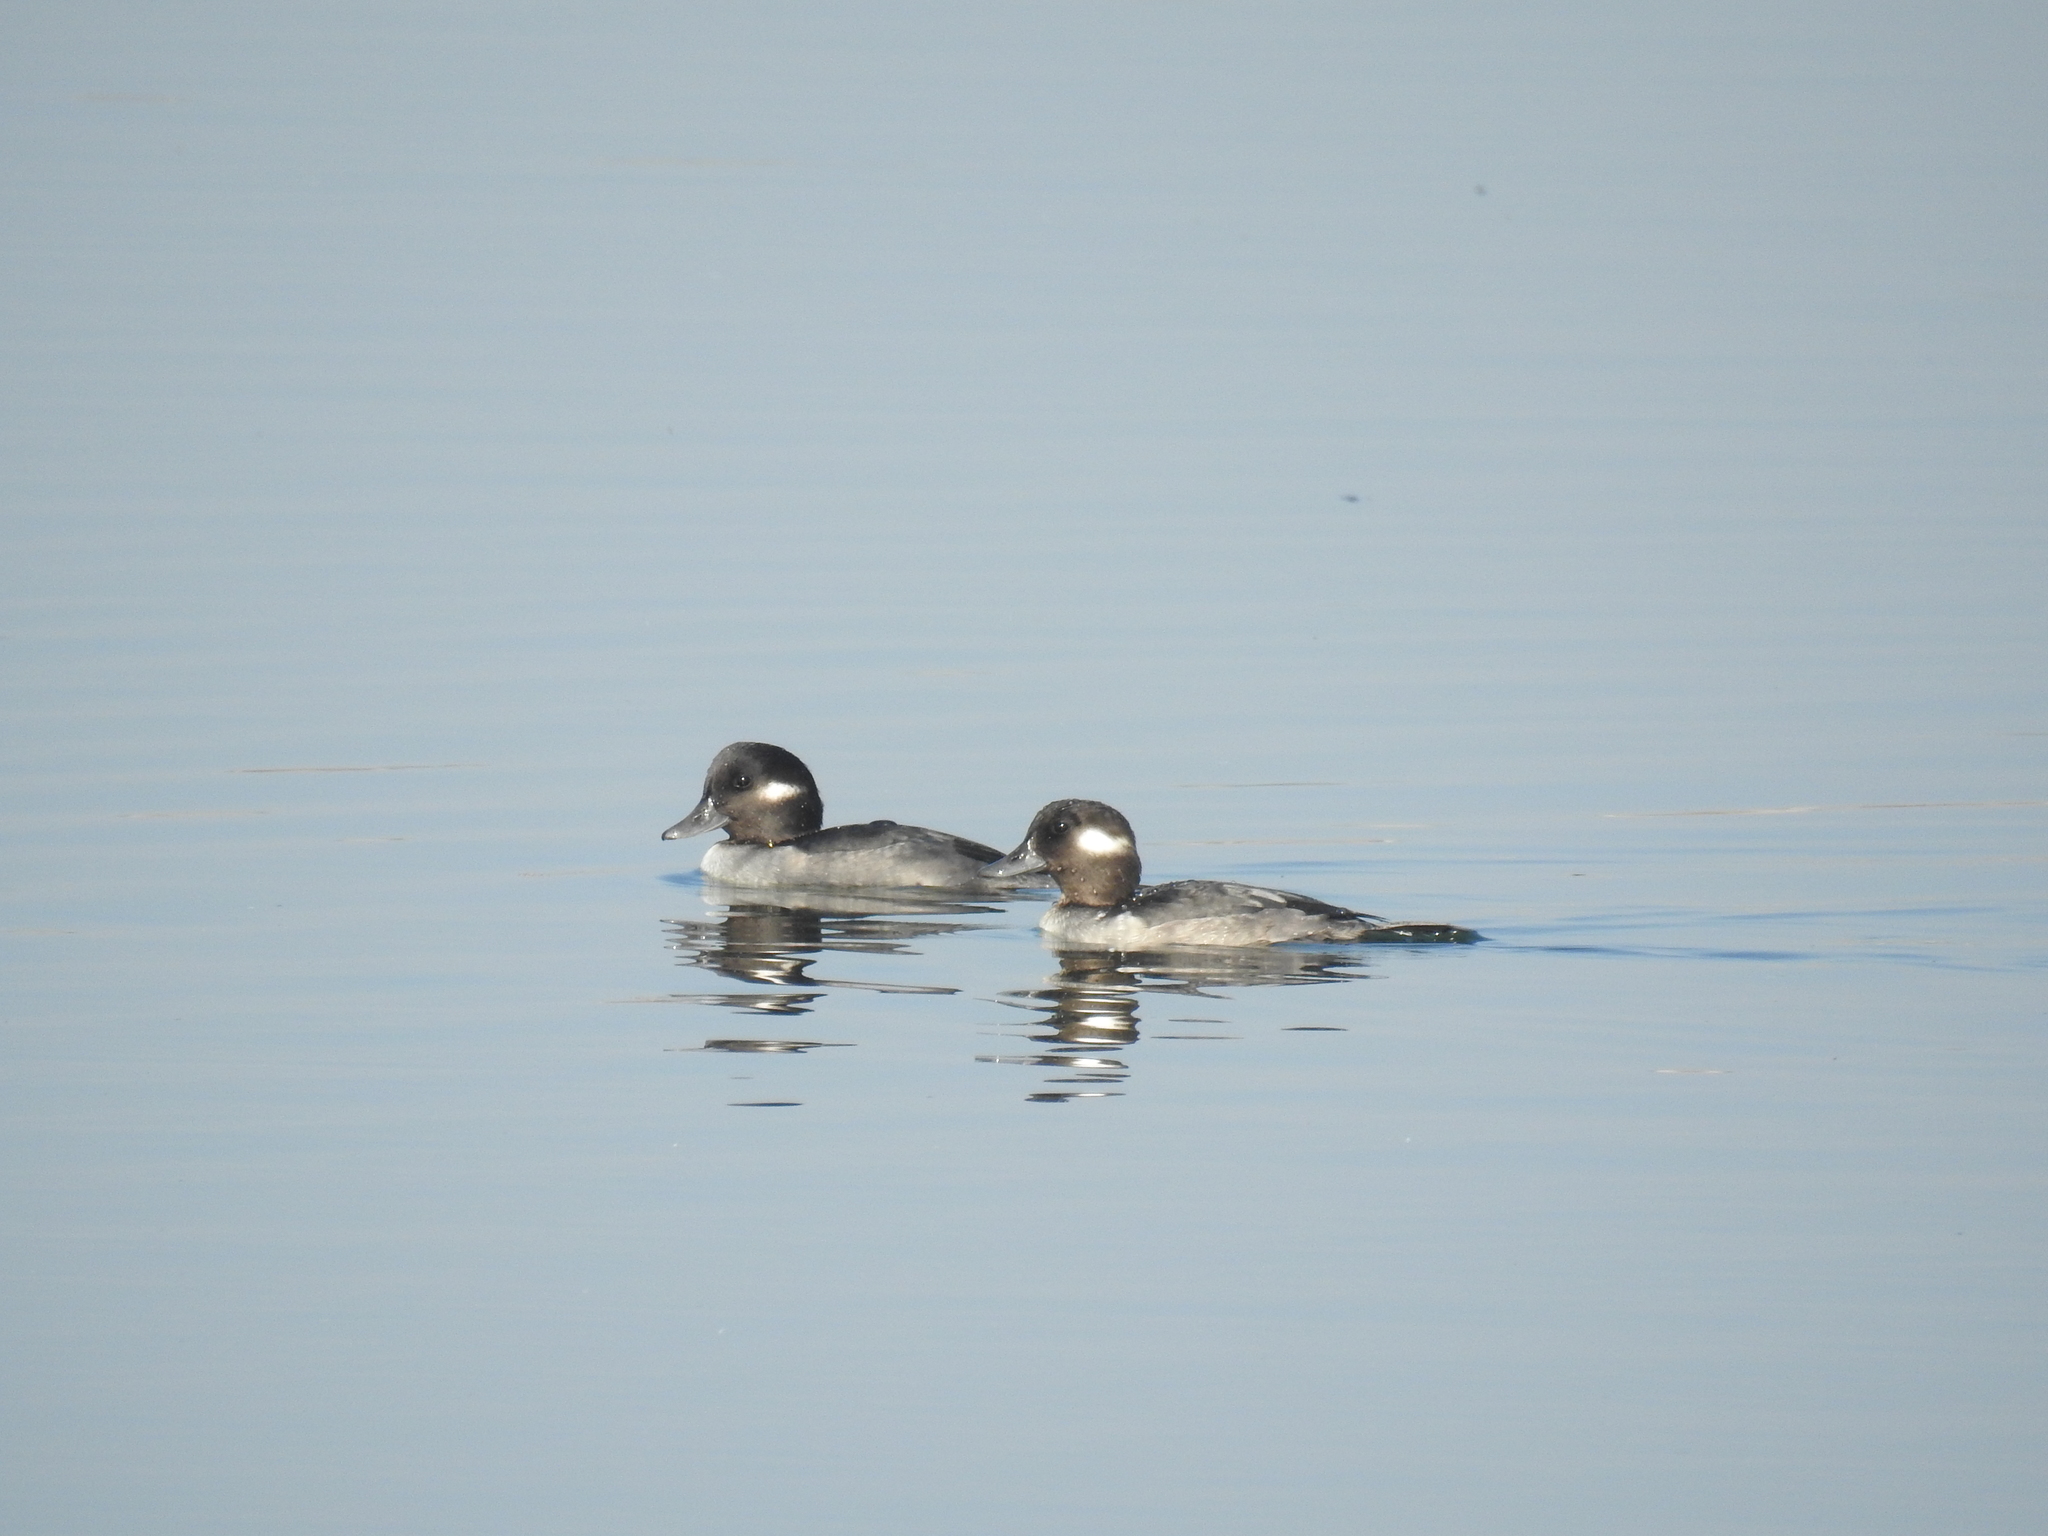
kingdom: Animalia
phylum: Chordata
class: Aves
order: Anseriformes
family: Anatidae
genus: Bucephala
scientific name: Bucephala albeola
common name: Bufflehead
